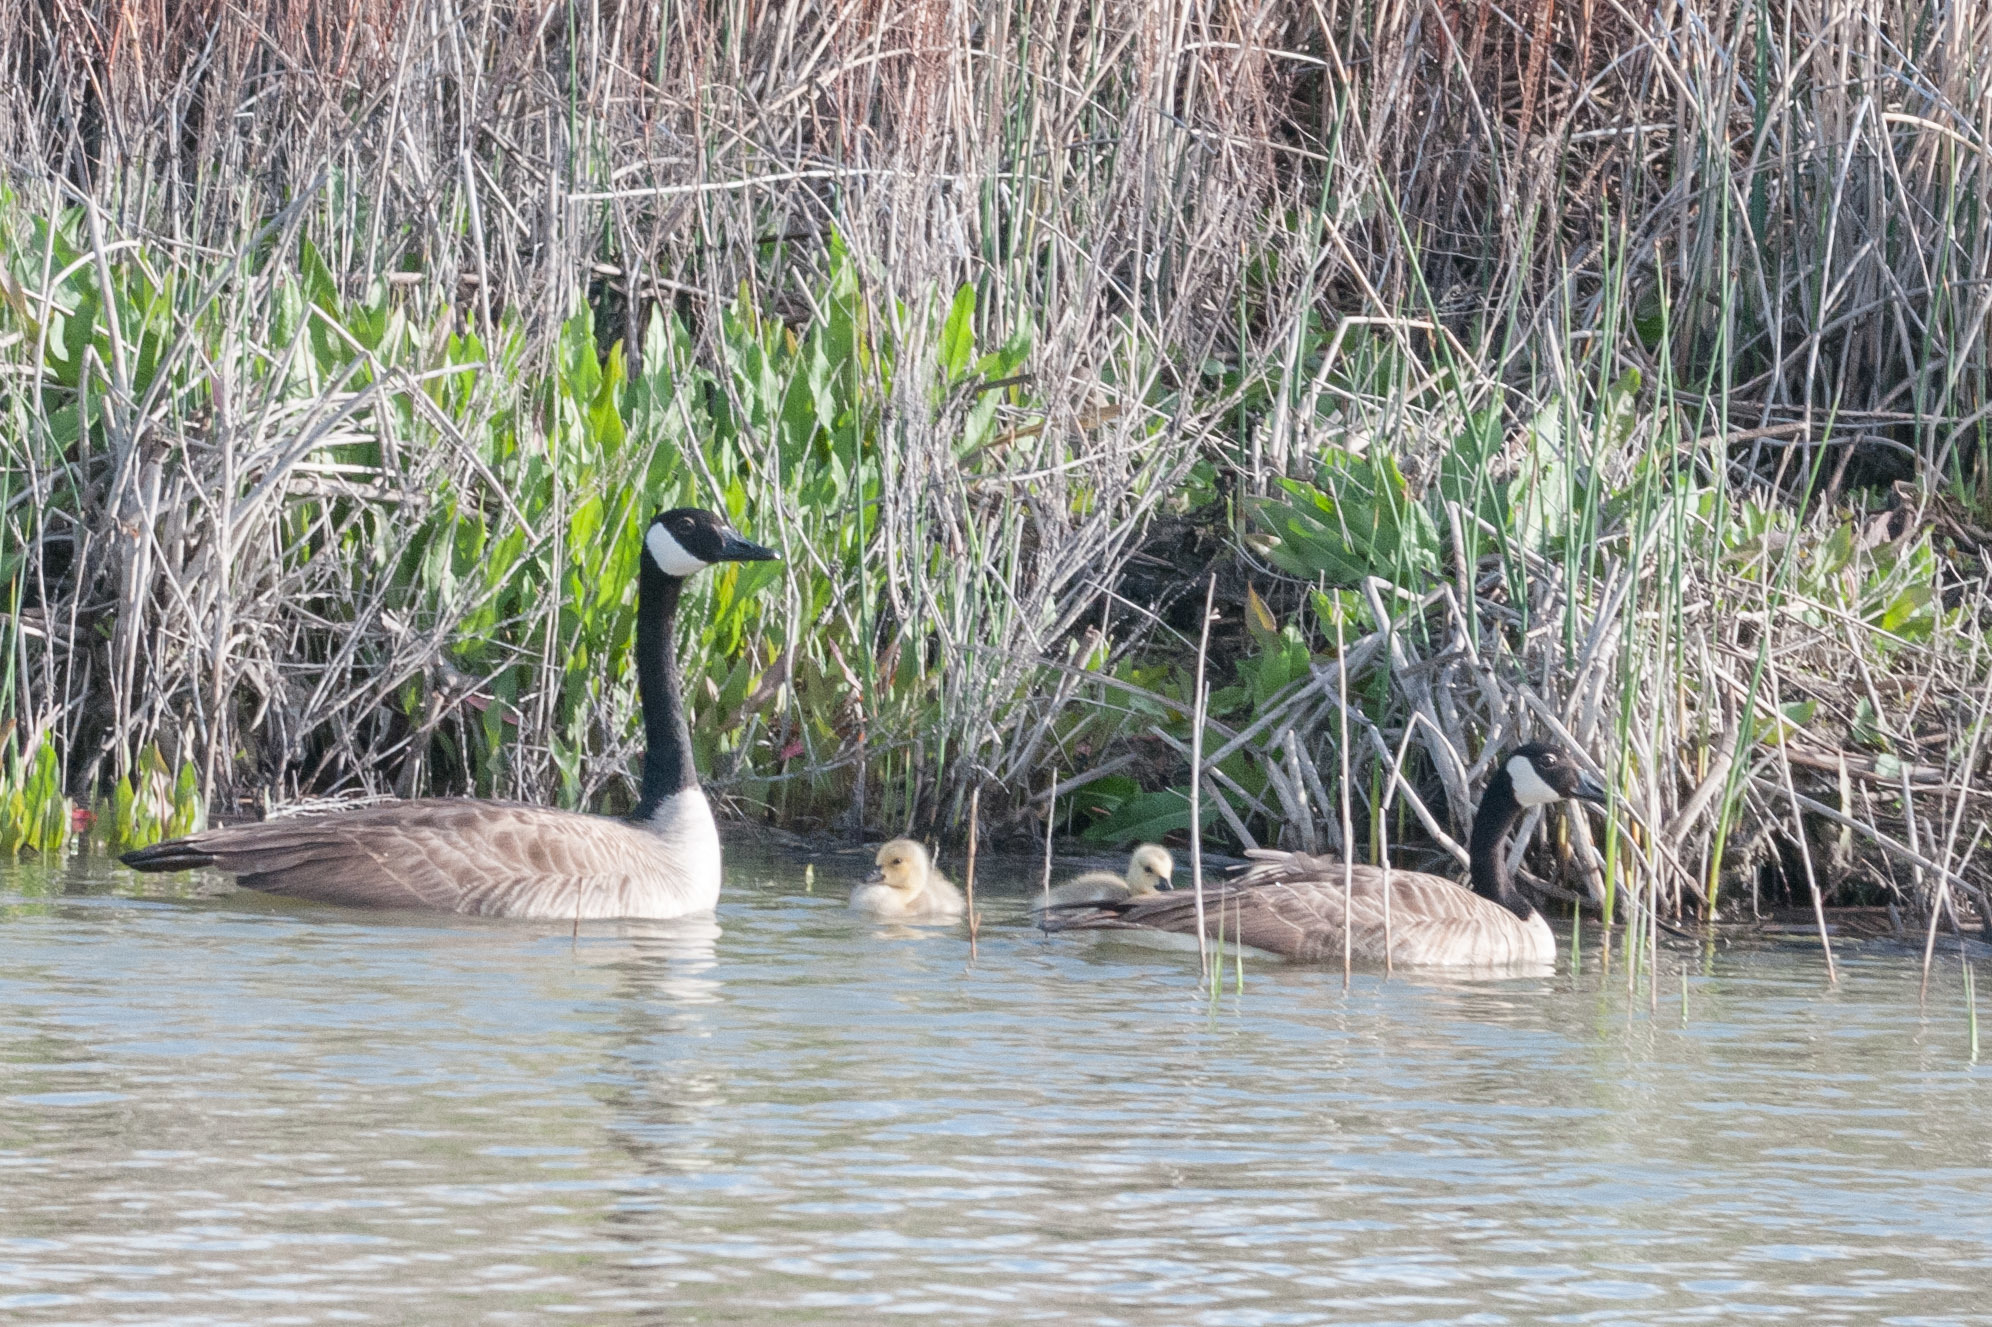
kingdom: Animalia
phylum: Chordata
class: Aves
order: Anseriformes
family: Anatidae
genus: Branta
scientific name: Branta canadensis
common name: Canada goose
